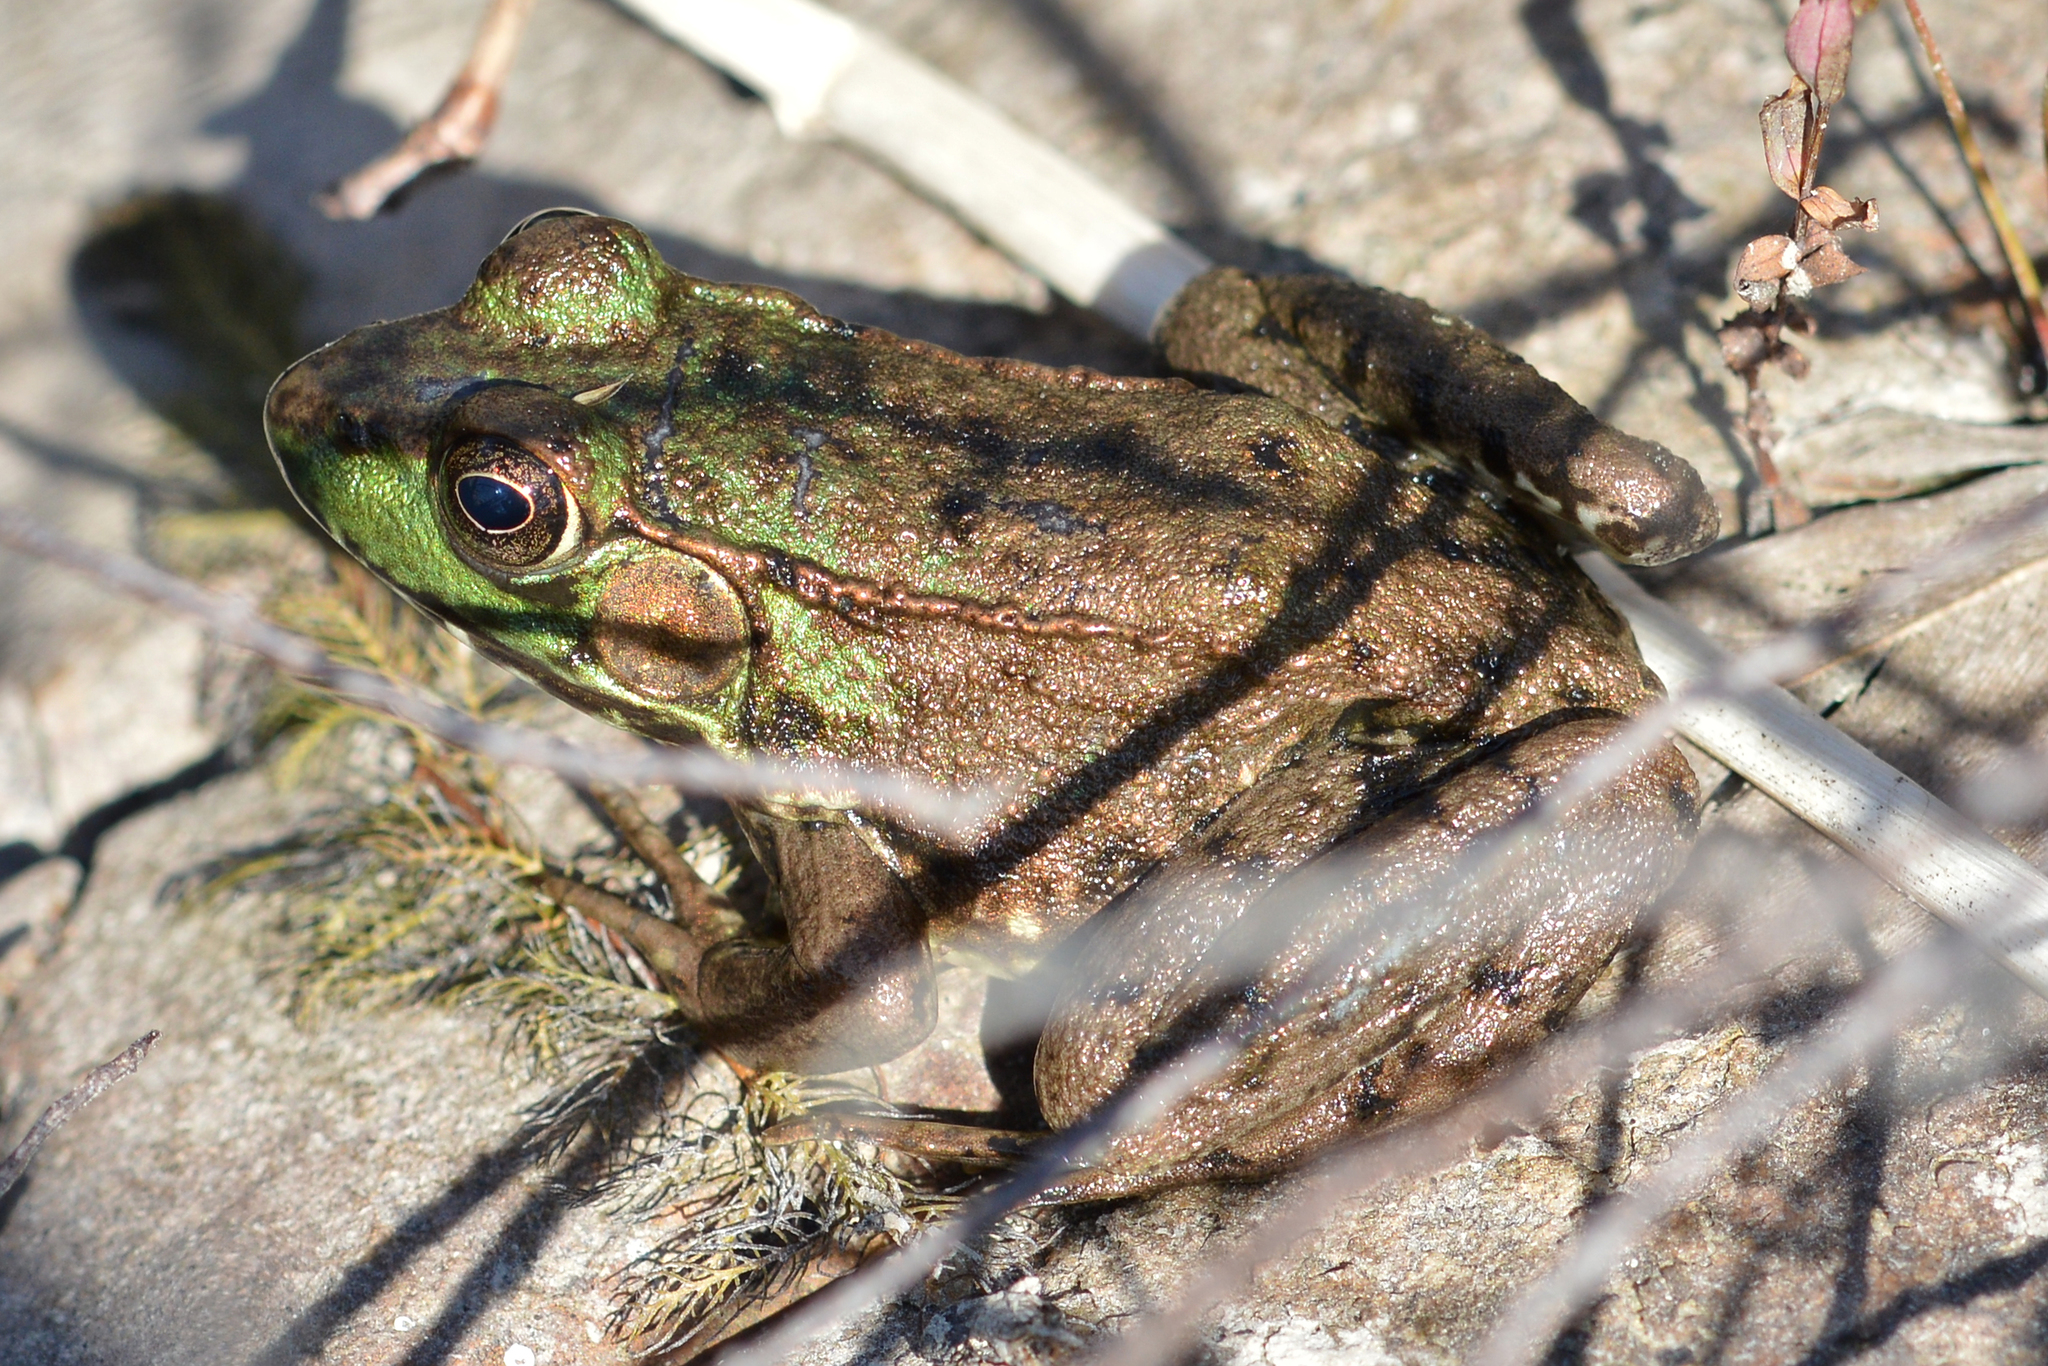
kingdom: Animalia
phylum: Chordata
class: Amphibia
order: Anura
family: Ranidae
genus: Lithobates
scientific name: Lithobates clamitans
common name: Green frog
